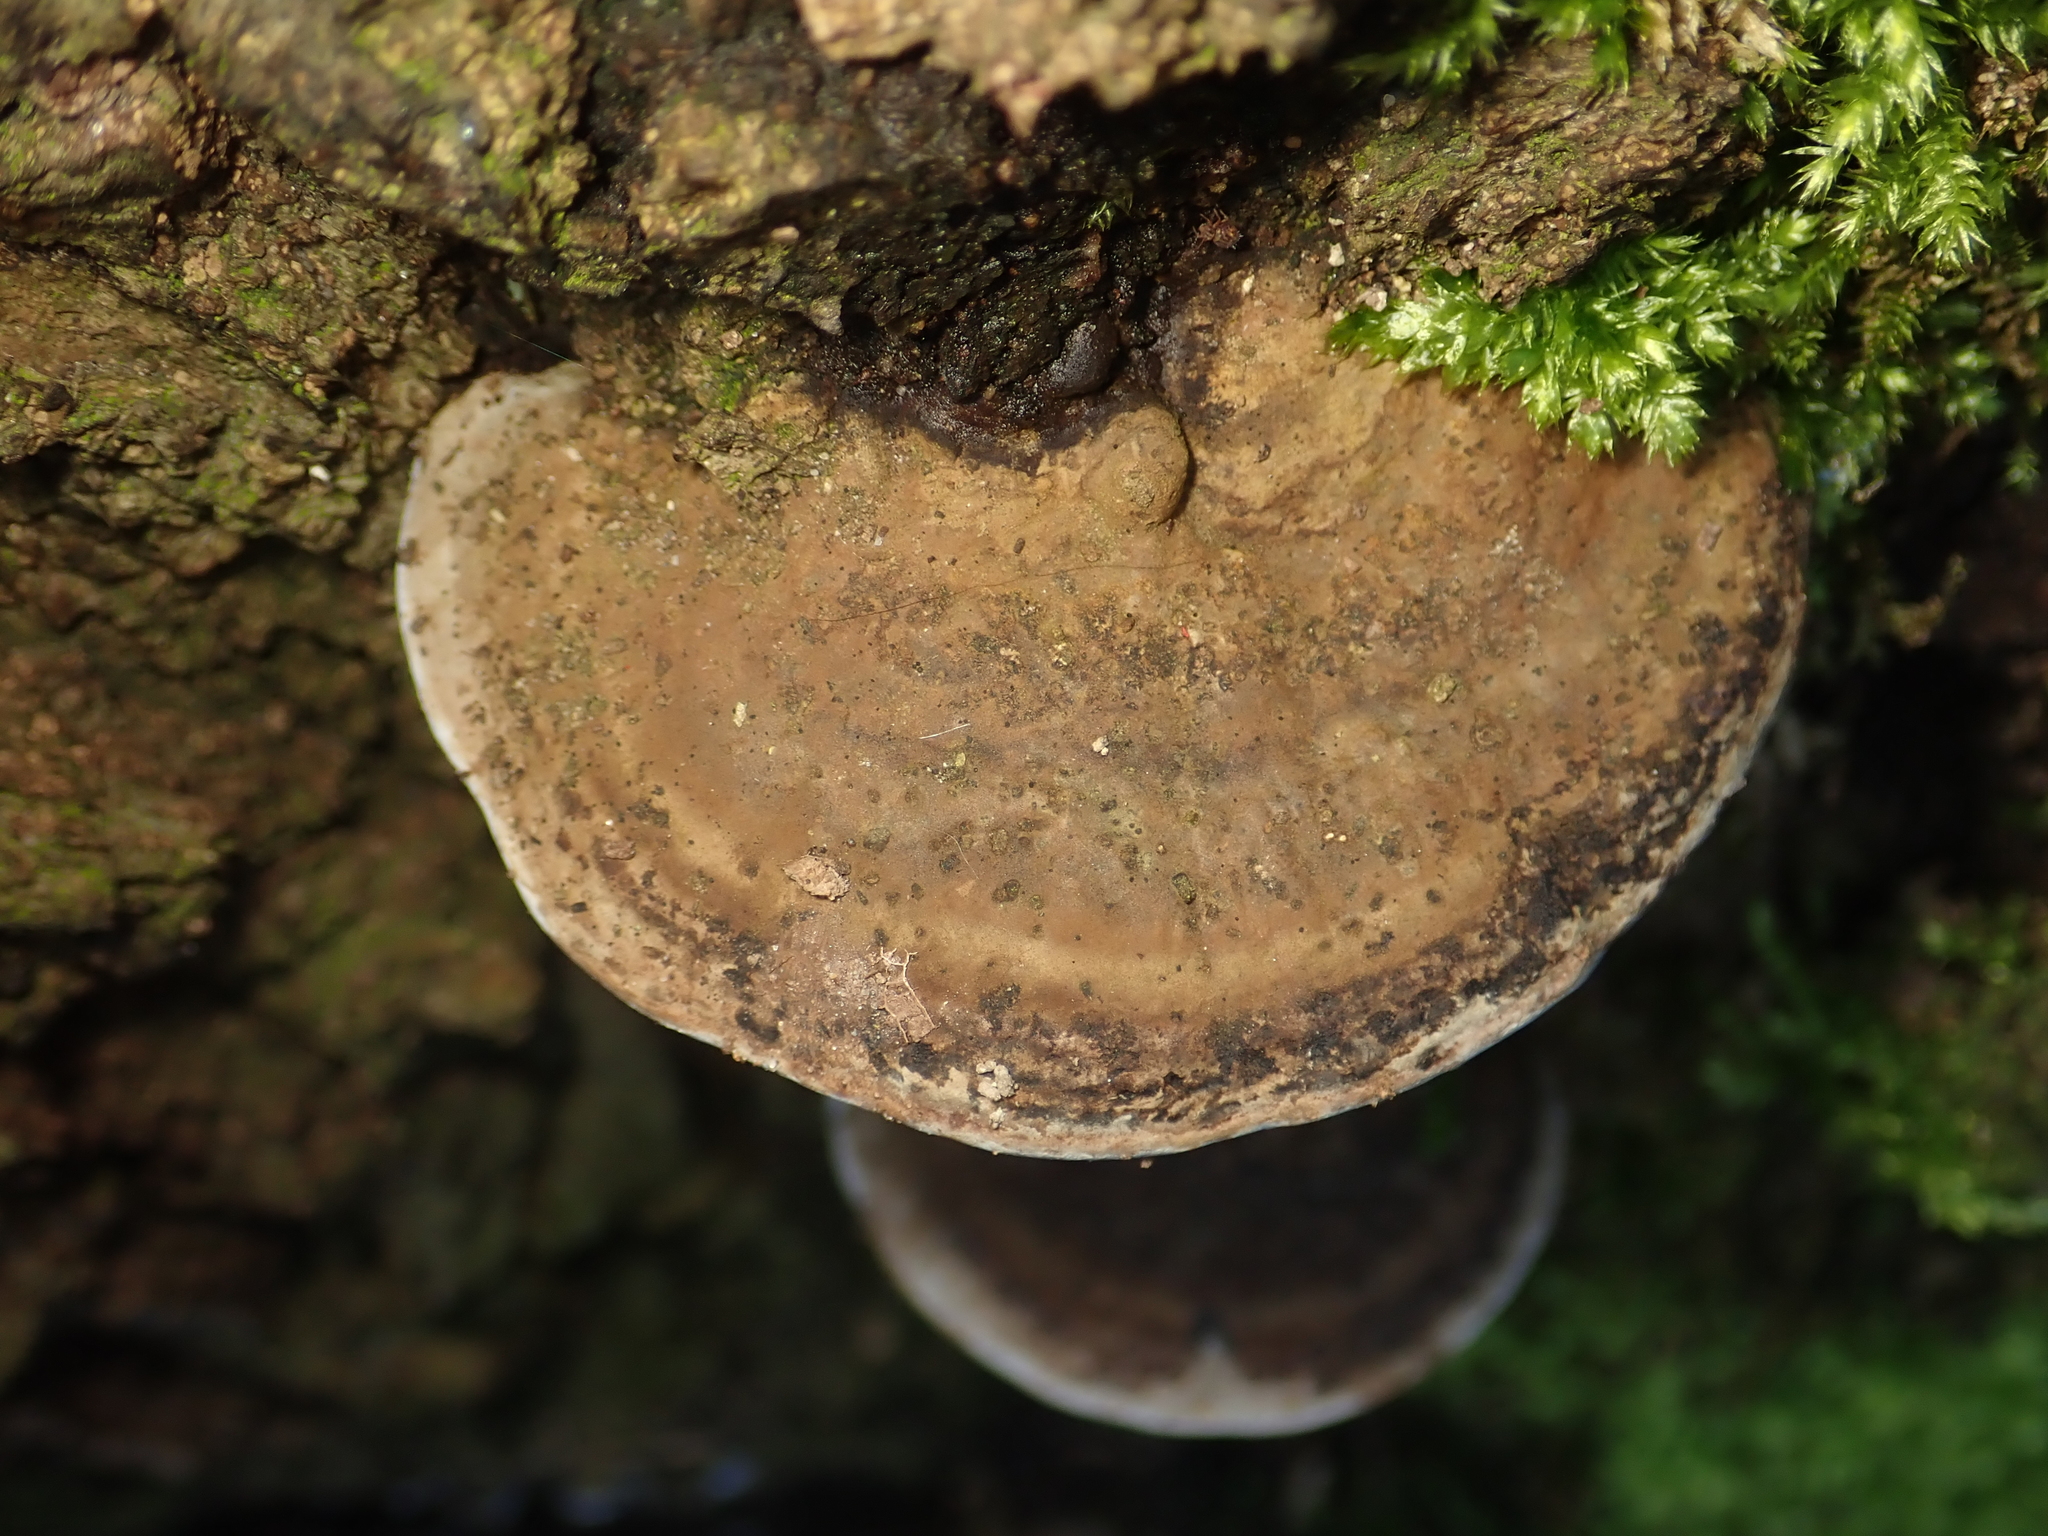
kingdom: Fungi
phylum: Basidiomycota
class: Agaricomycetes
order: Polyporales
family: Polyporaceae
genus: Ganoderma
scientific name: Ganoderma applanatum
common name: Artist's bracket
